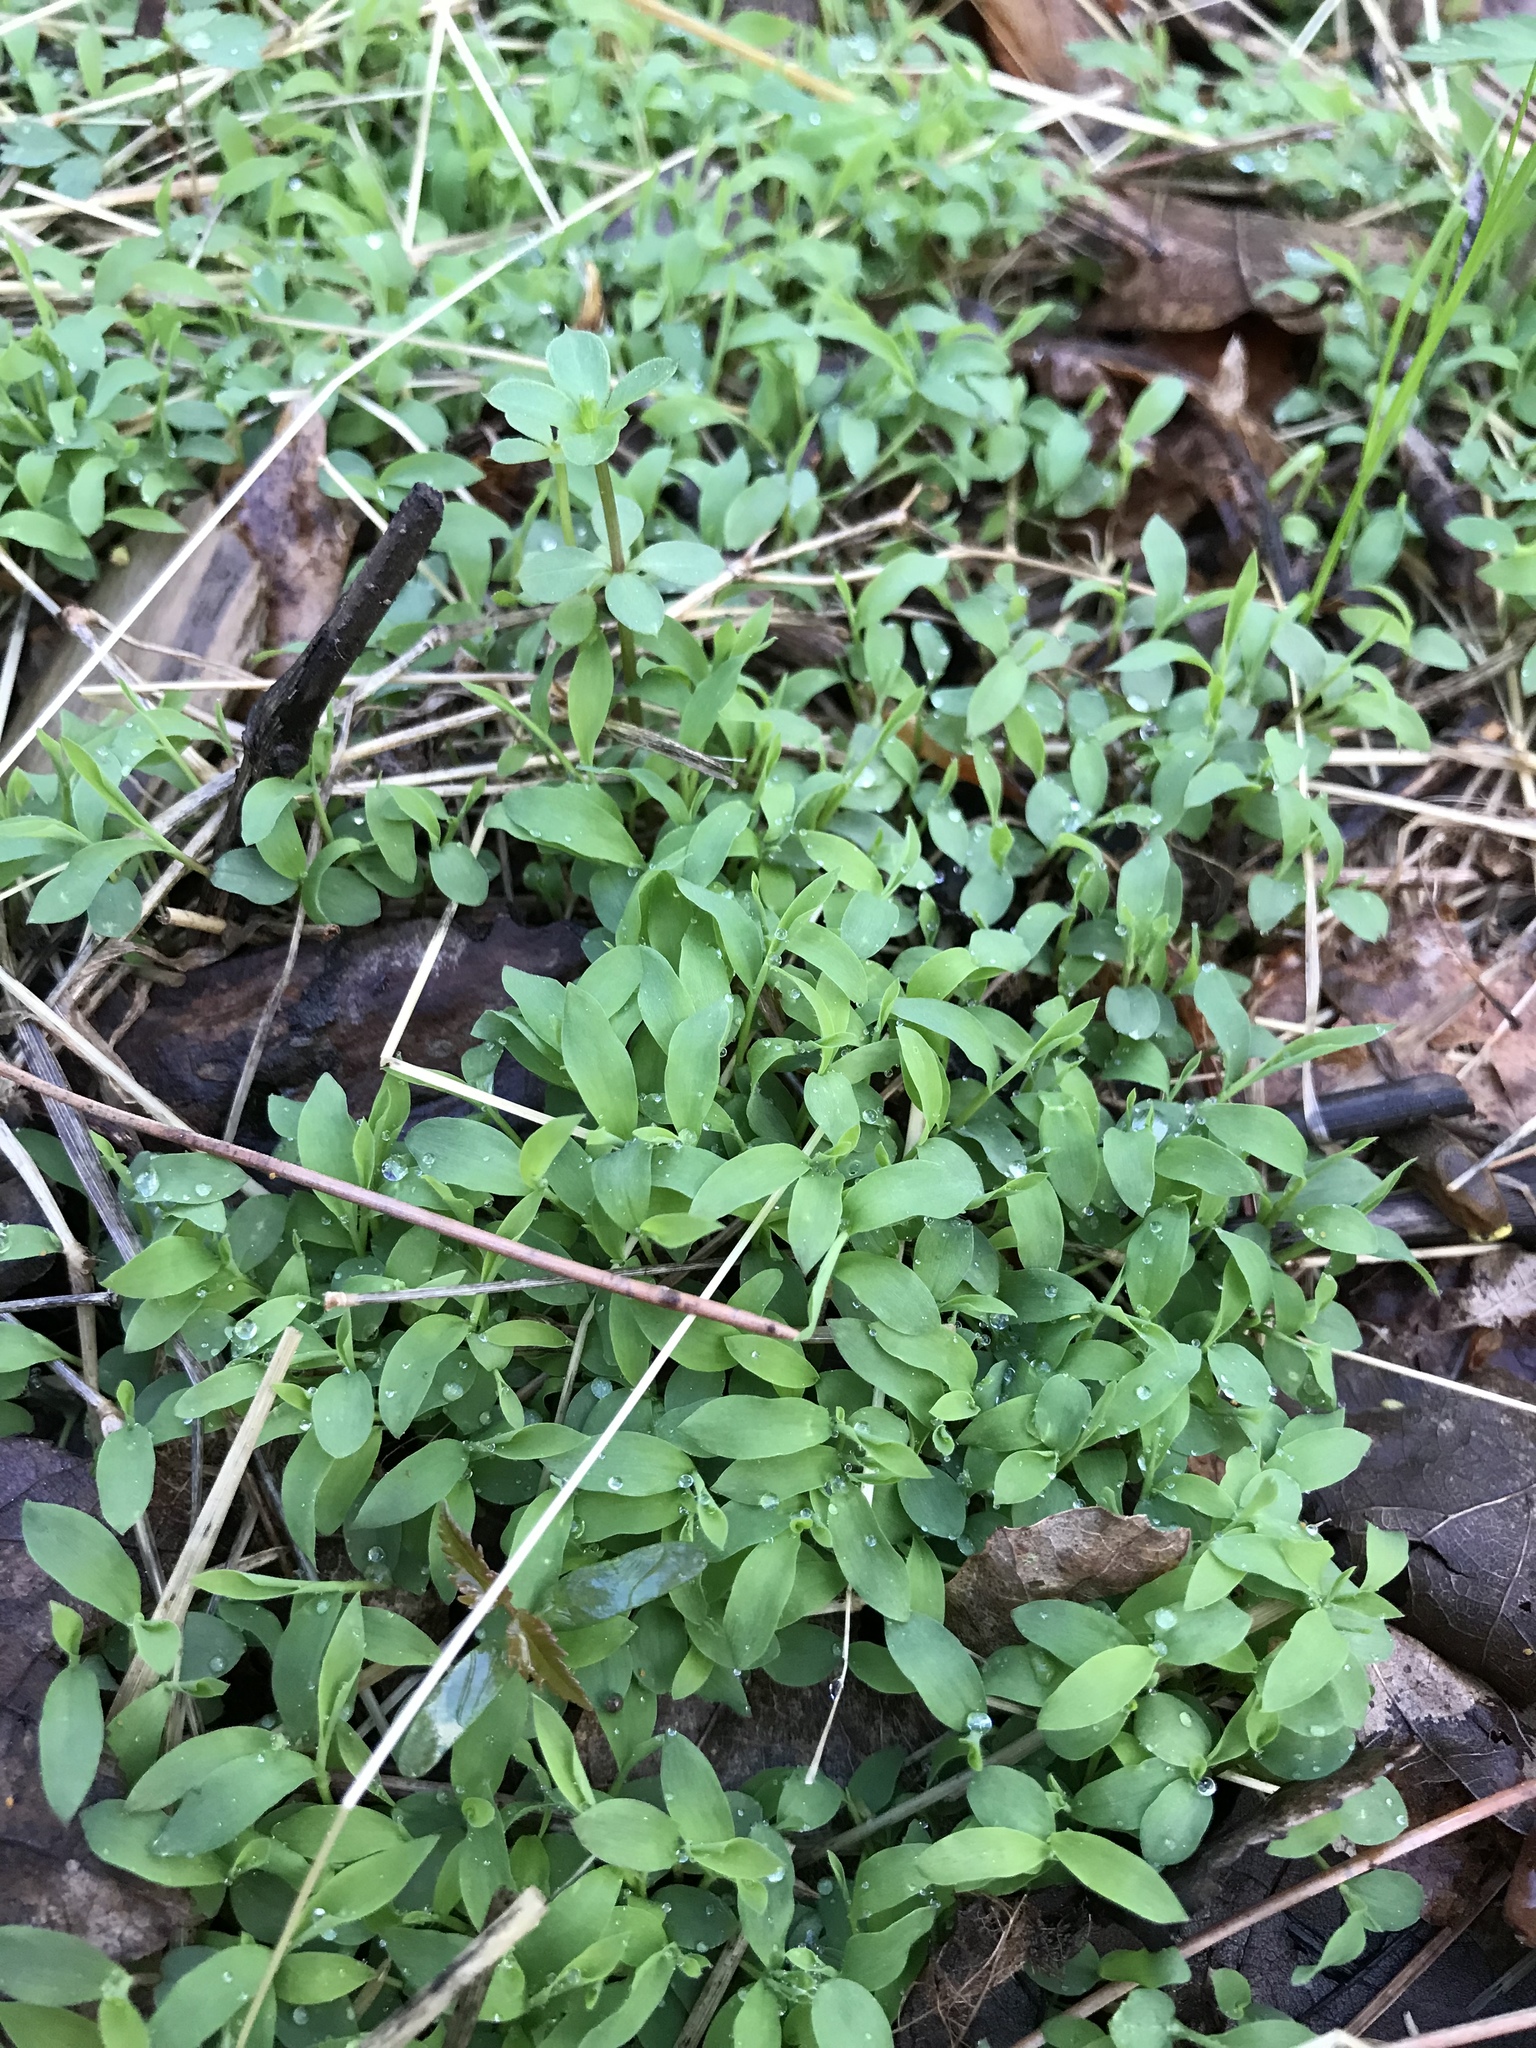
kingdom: Plantae
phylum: Tracheophyta
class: Liliopsida
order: Poales
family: Poaceae
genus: Microstegium
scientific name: Microstegium vimineum
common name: Japanese stiltgrass
